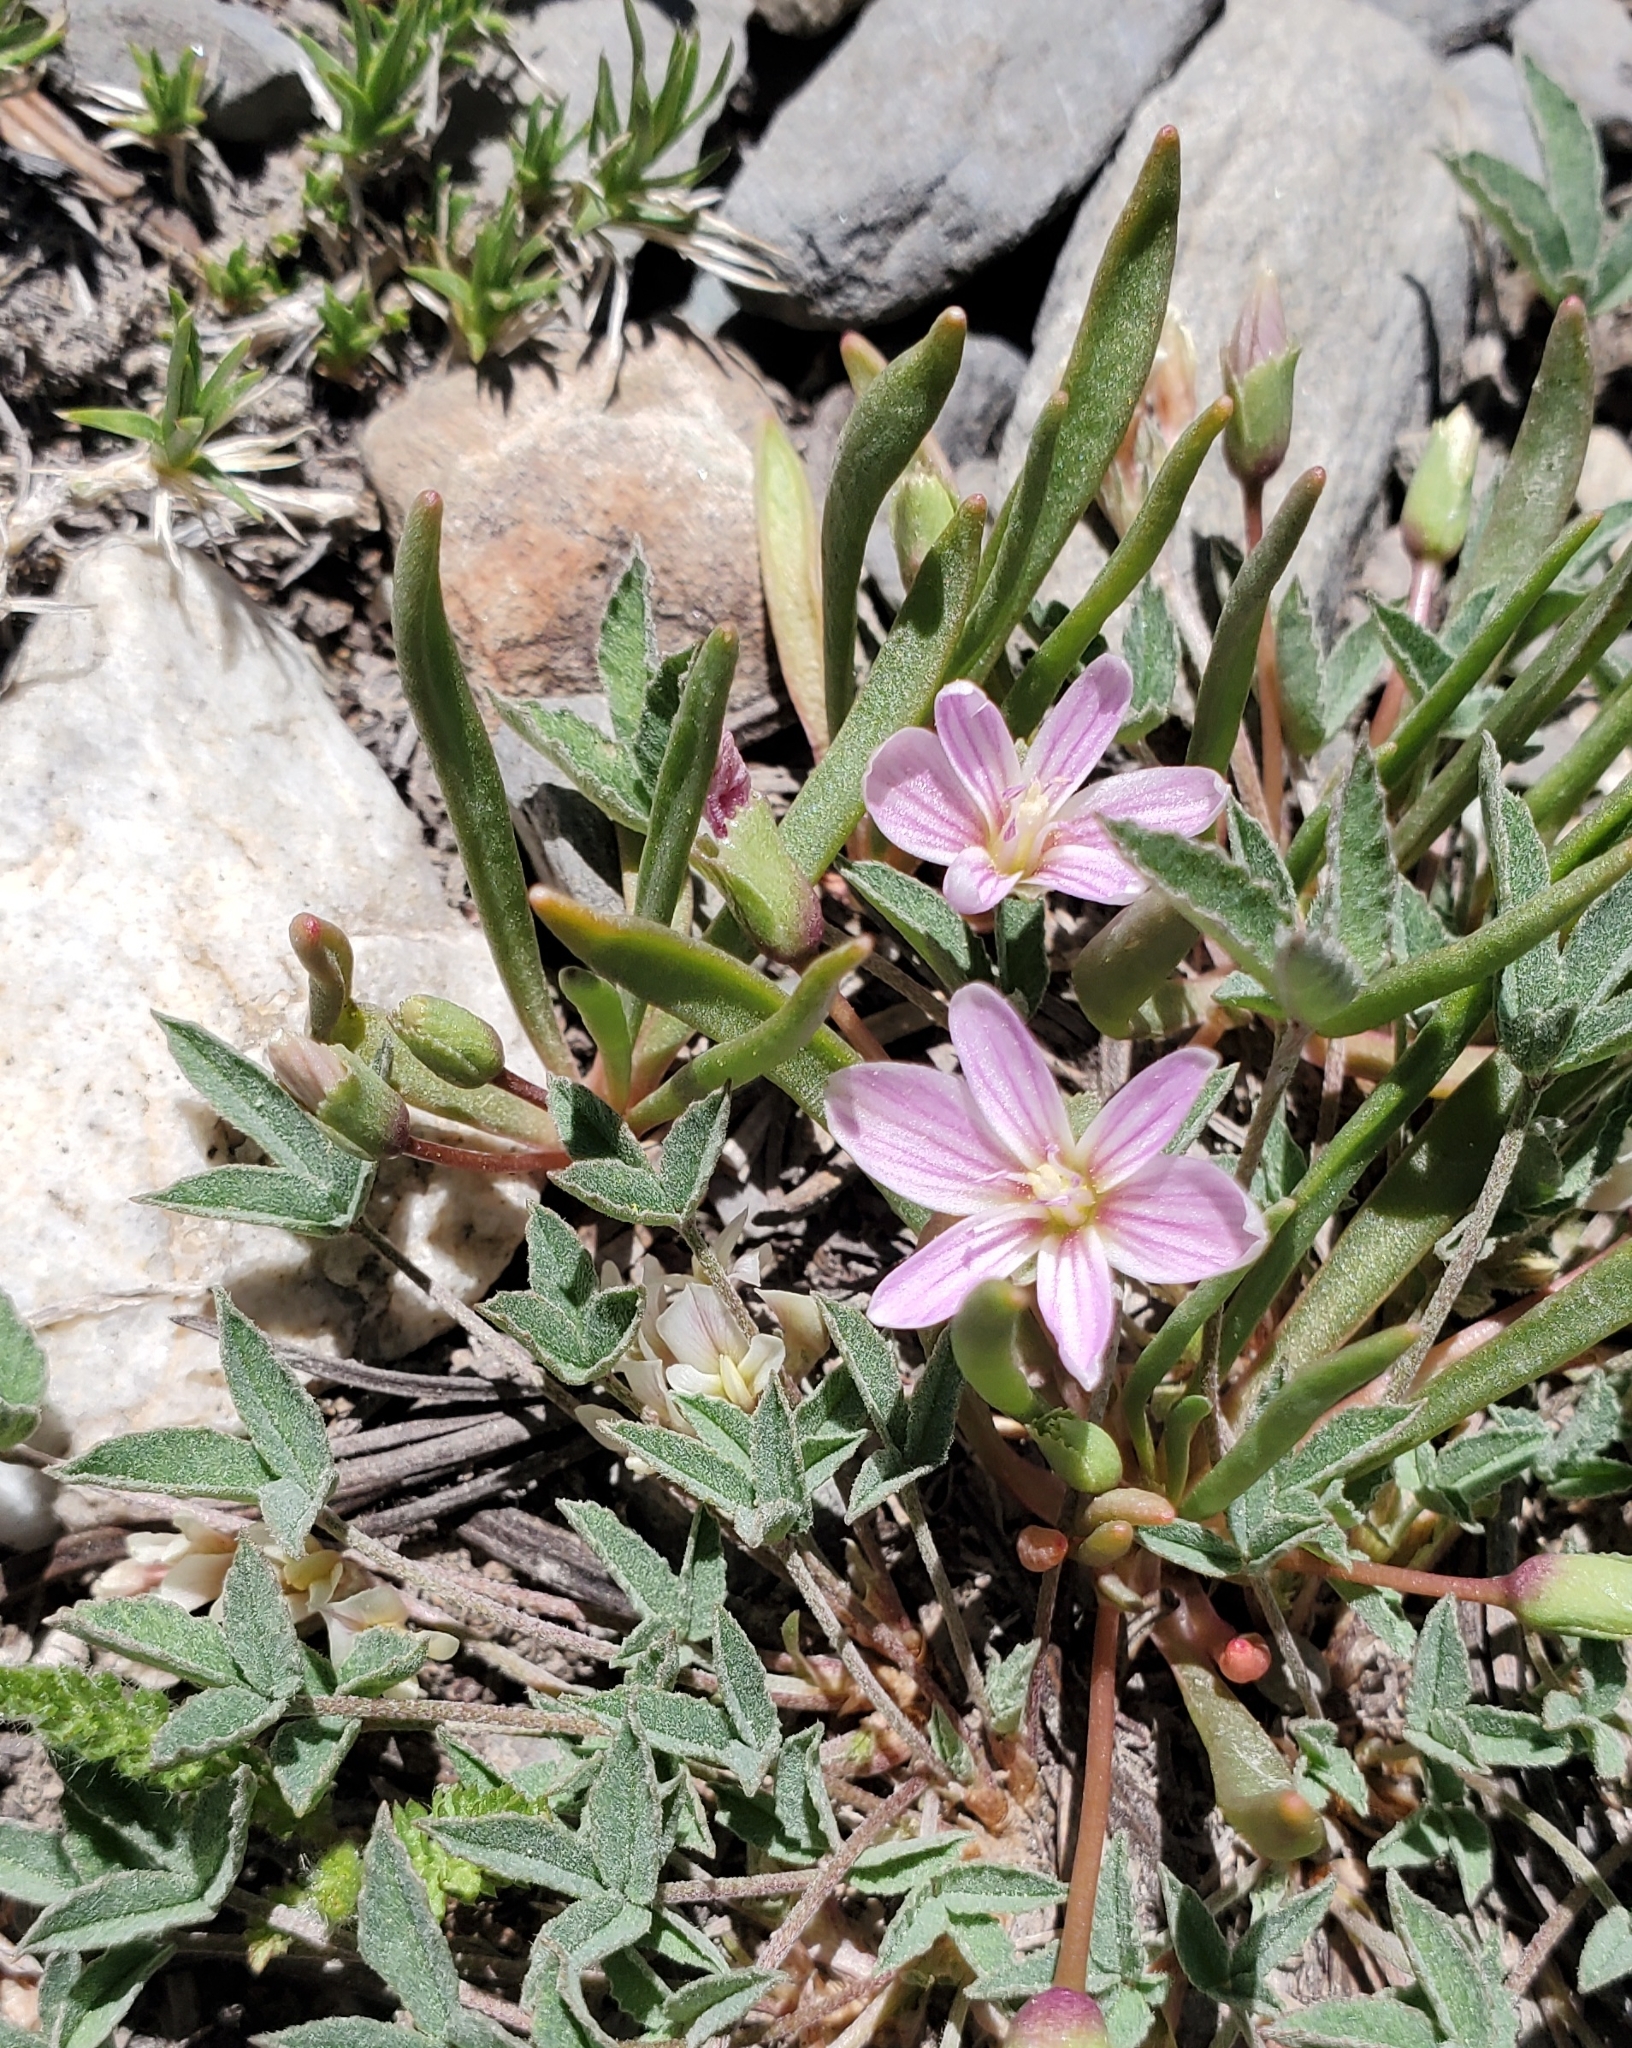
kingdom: Plantae
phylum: Tracheophyta
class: Magnoliopsida
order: Caryophyllales
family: Montiaceae
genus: Lewisia
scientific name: Lewisia pygmaea
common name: Alpine bitterroot
